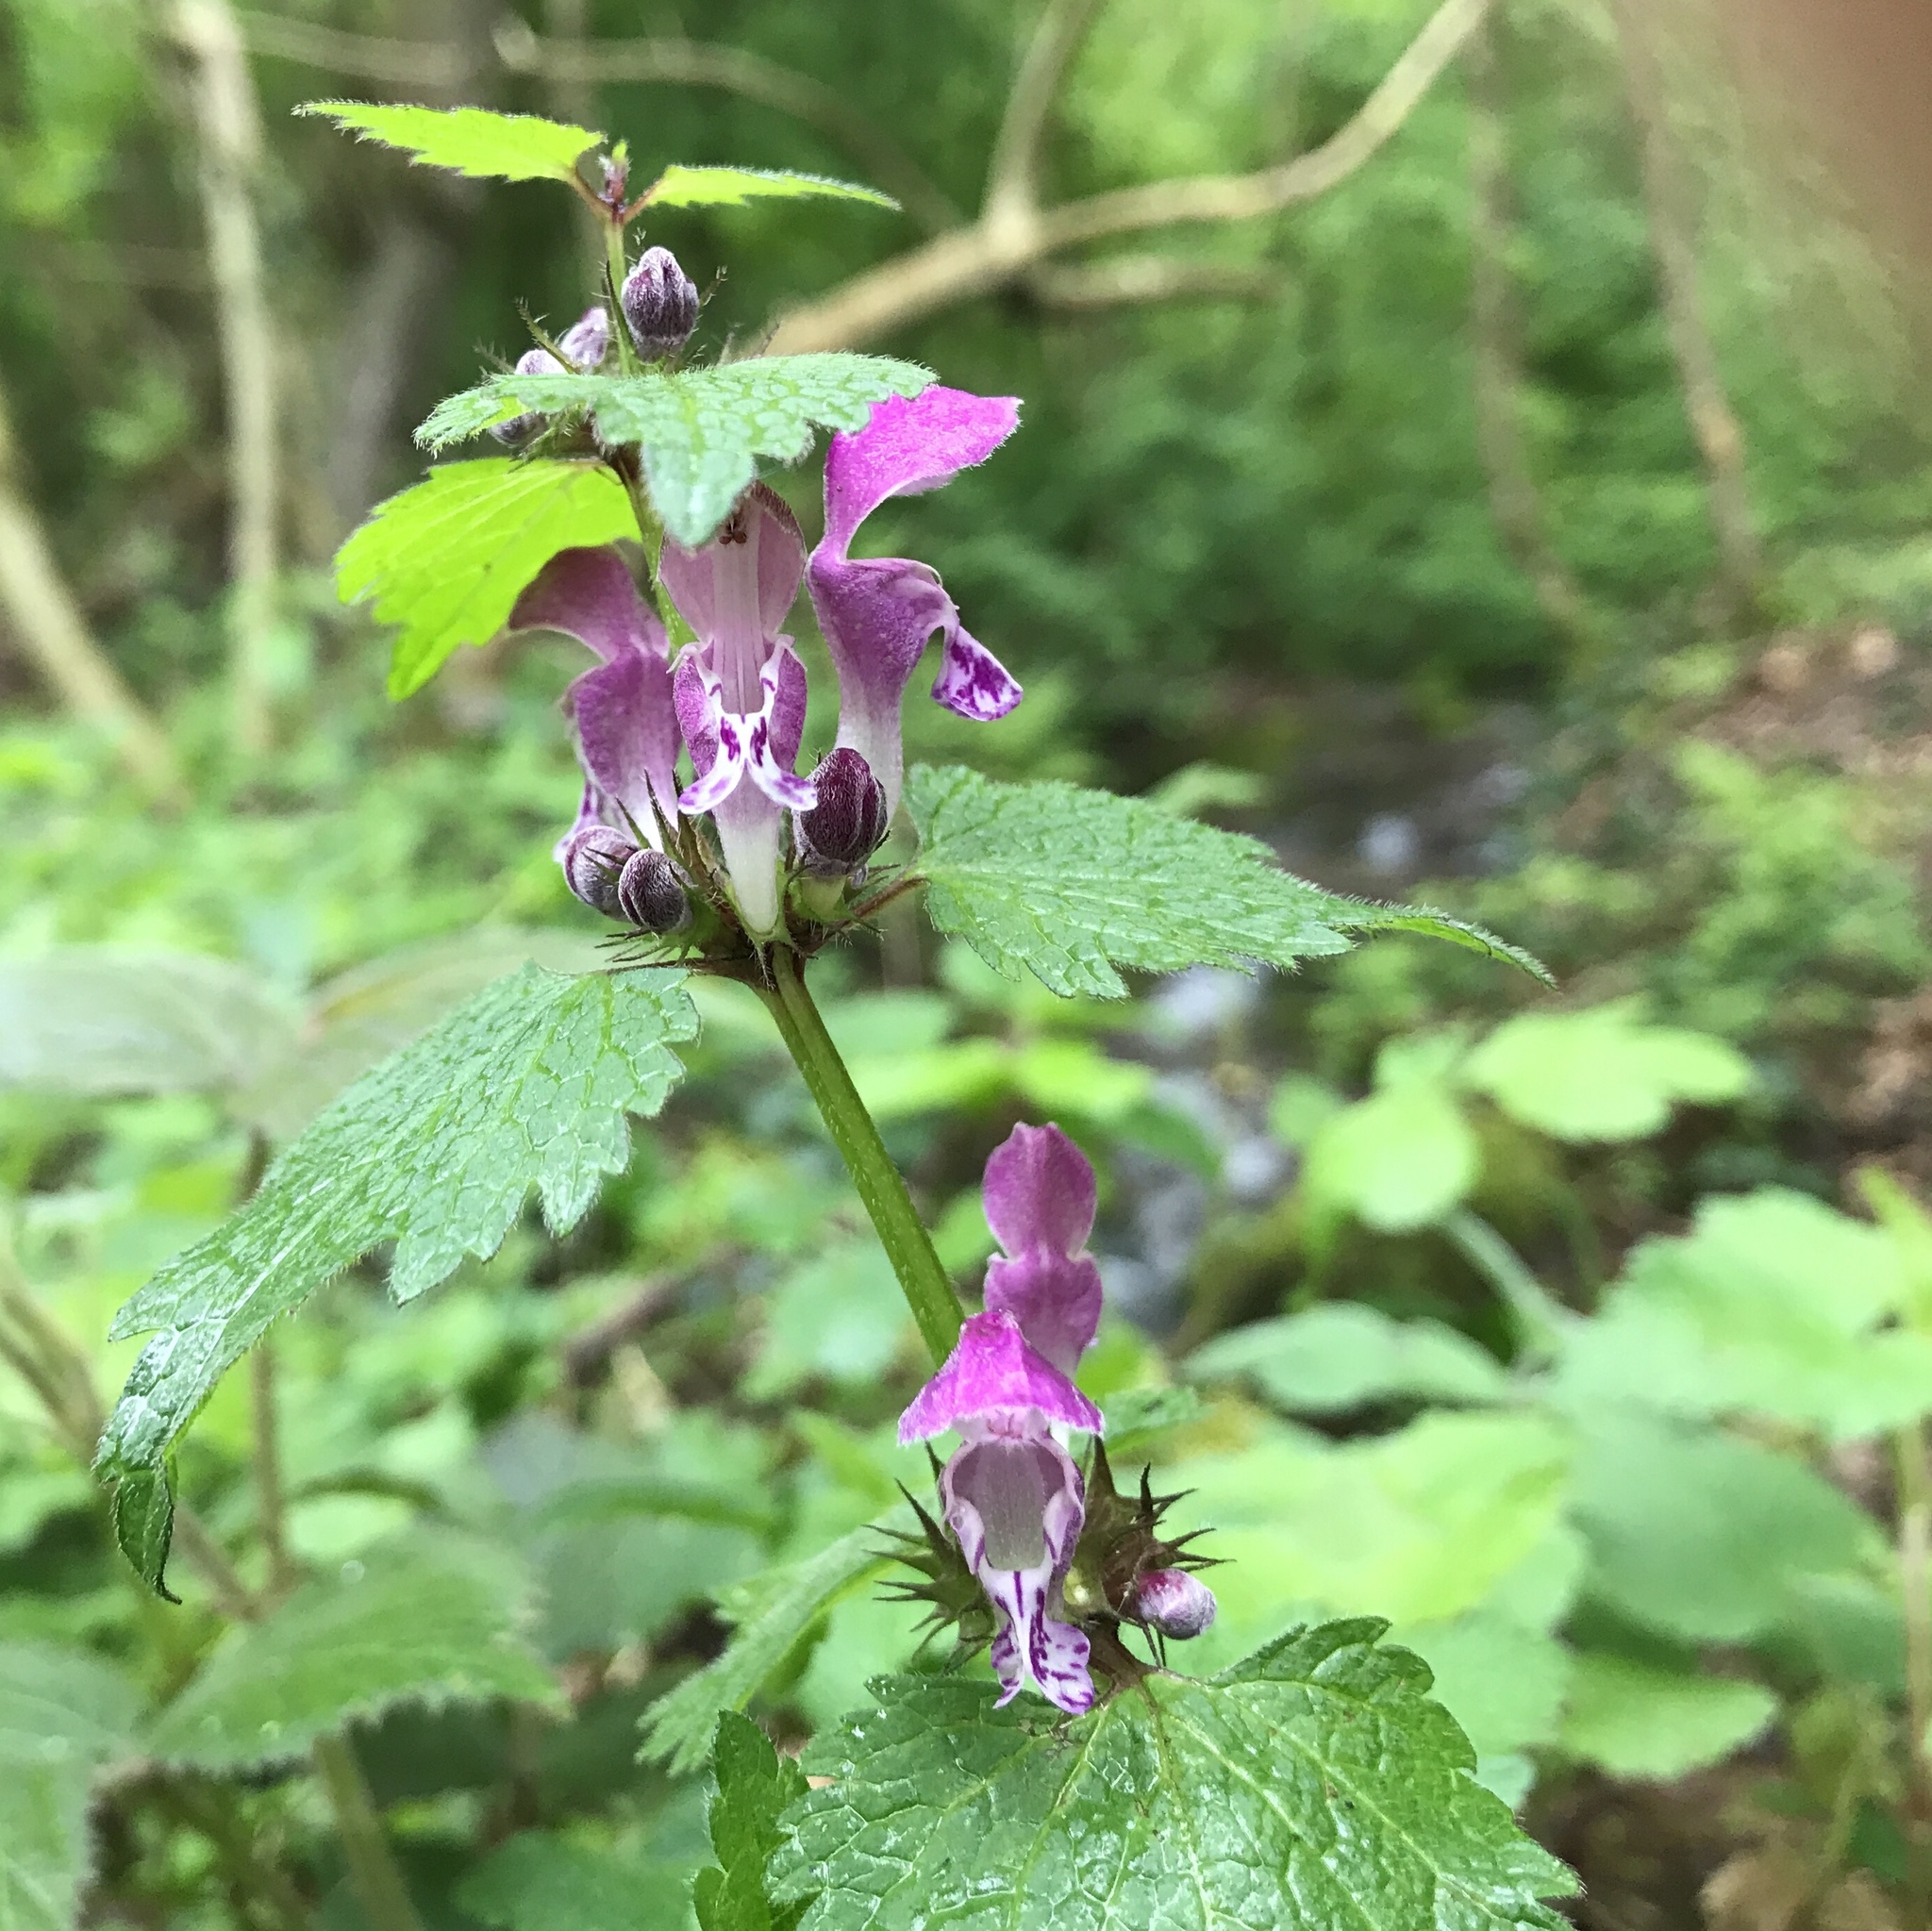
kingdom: Plantae
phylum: Tracheophyta
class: Magnoliopsida
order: Lamiales
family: Lamiaceae
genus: Lamium
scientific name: Lamium maculatum
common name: Spotted dead-nettle
